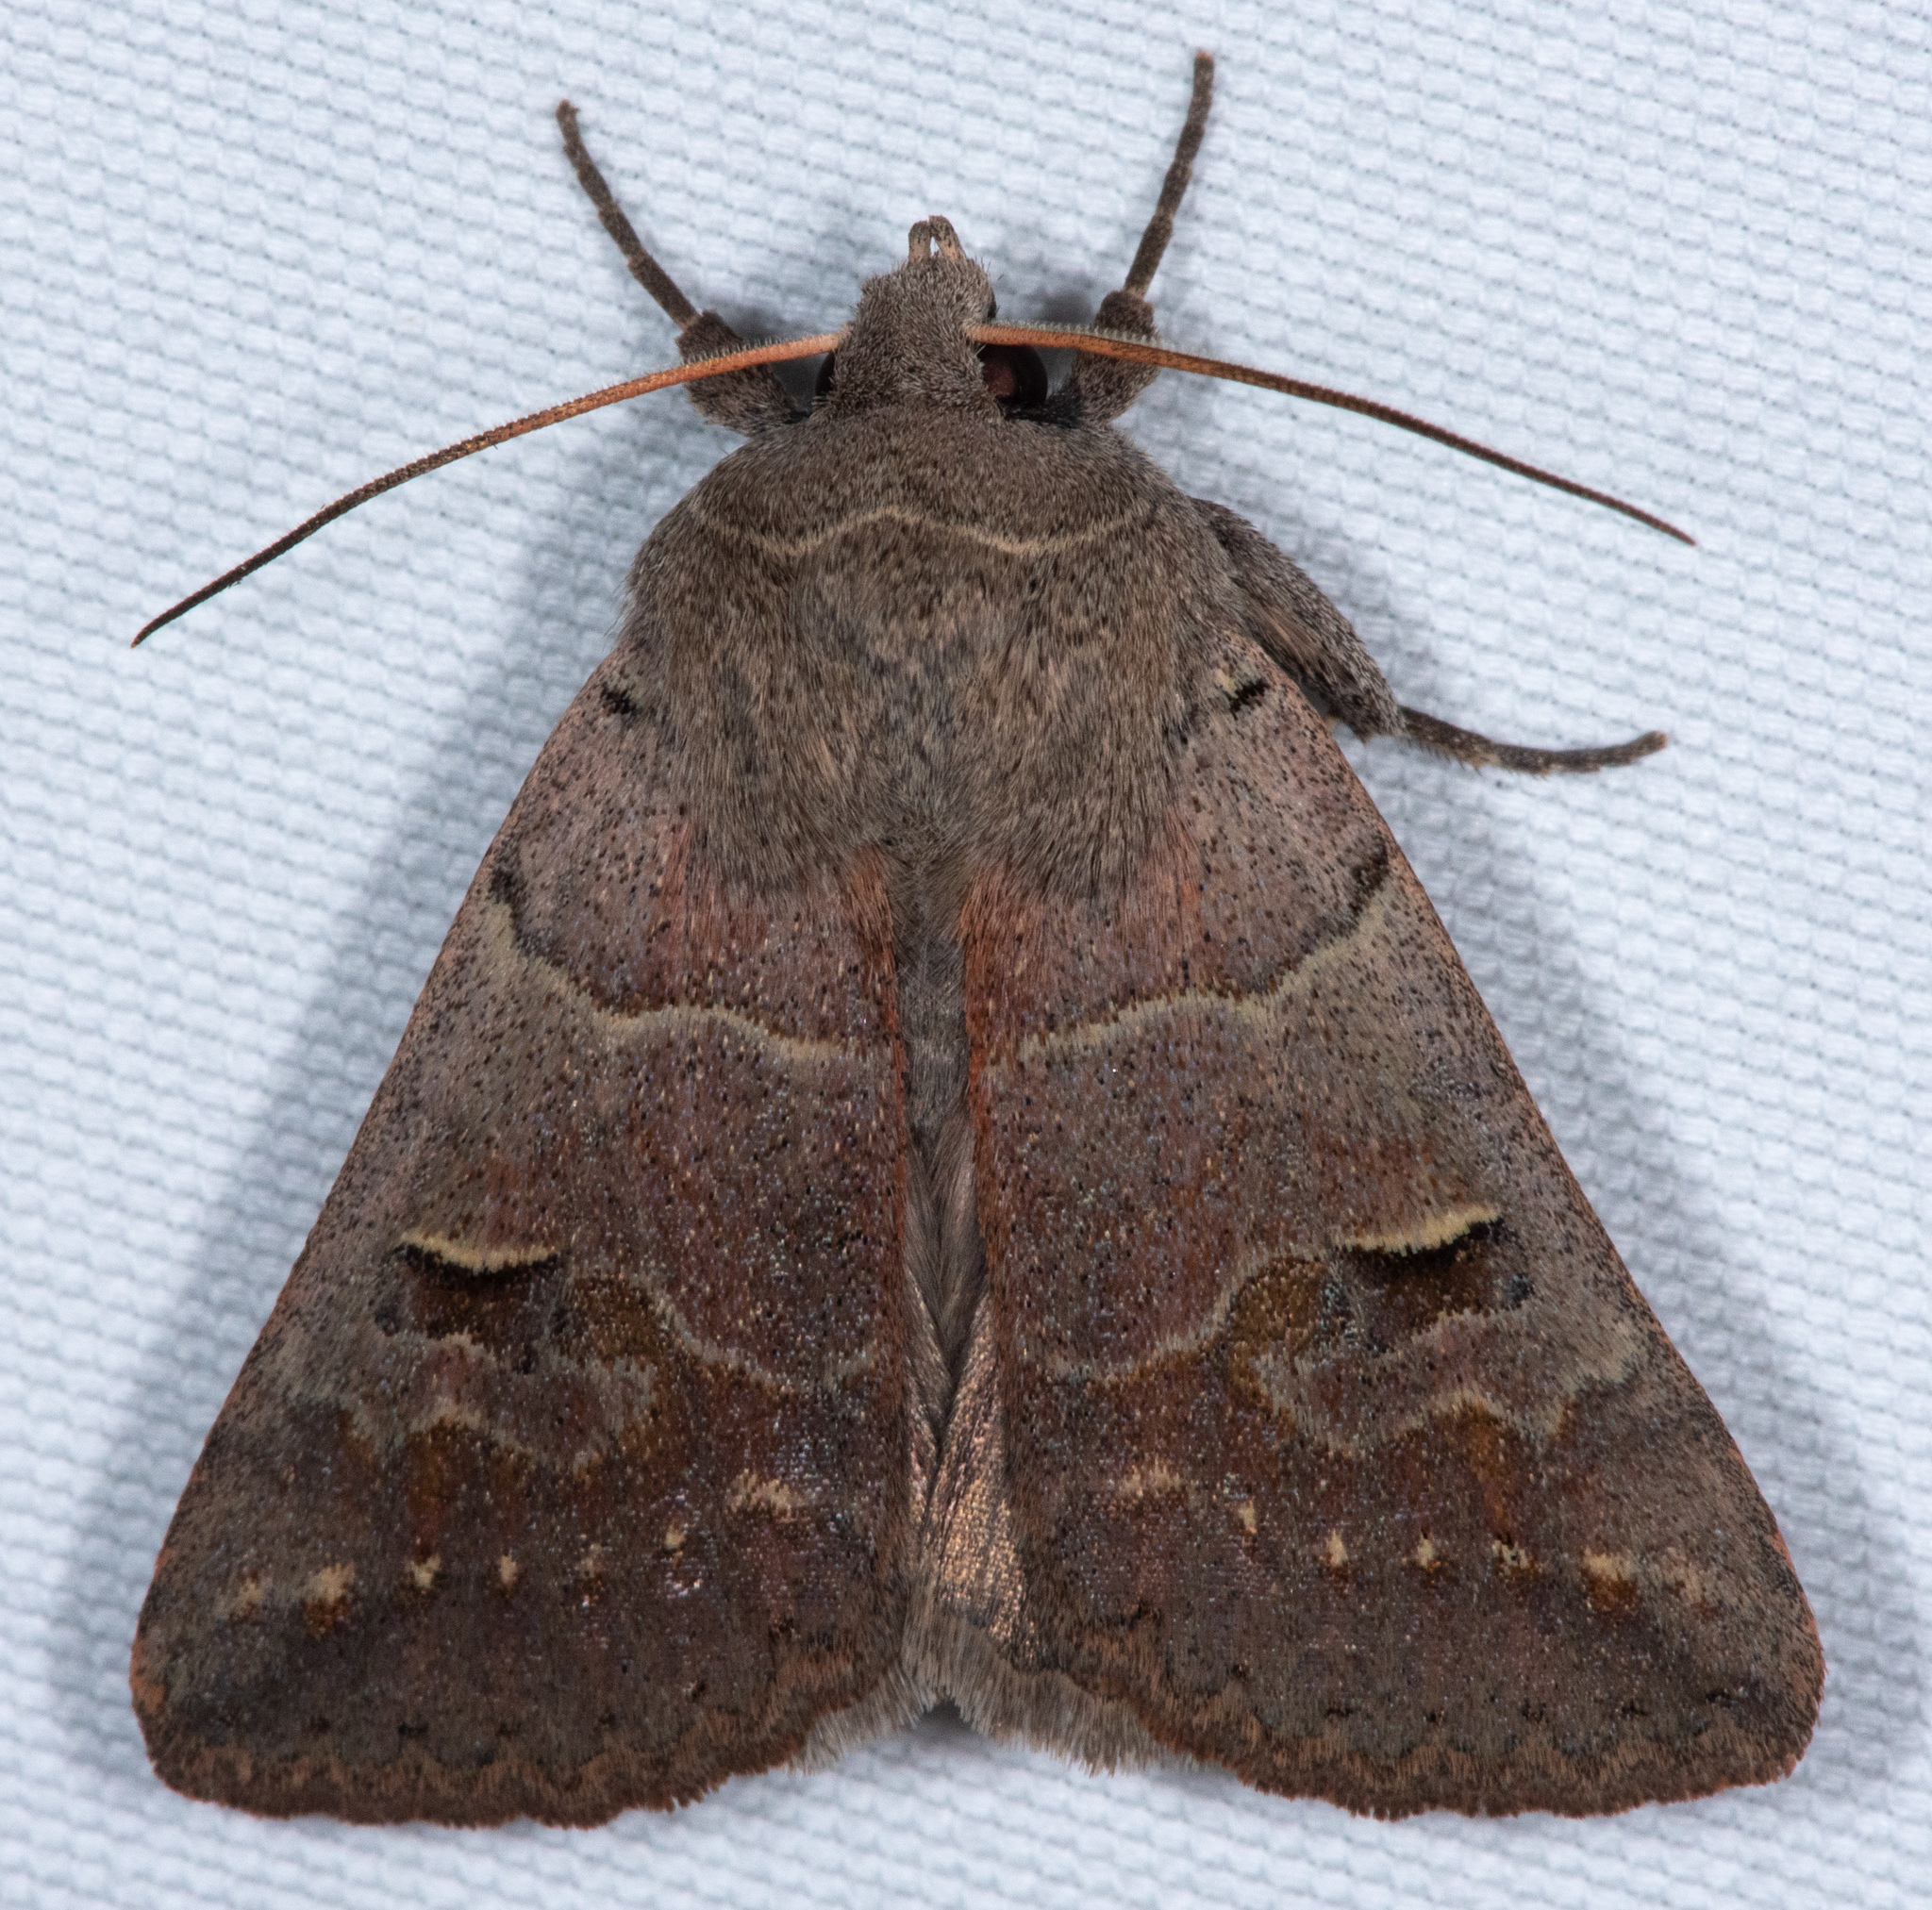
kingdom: Animalia
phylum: Arthropoda
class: Insecta
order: Lepidoptera
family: Erebidae
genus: Cissusa
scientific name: Cissusa indiscreta
